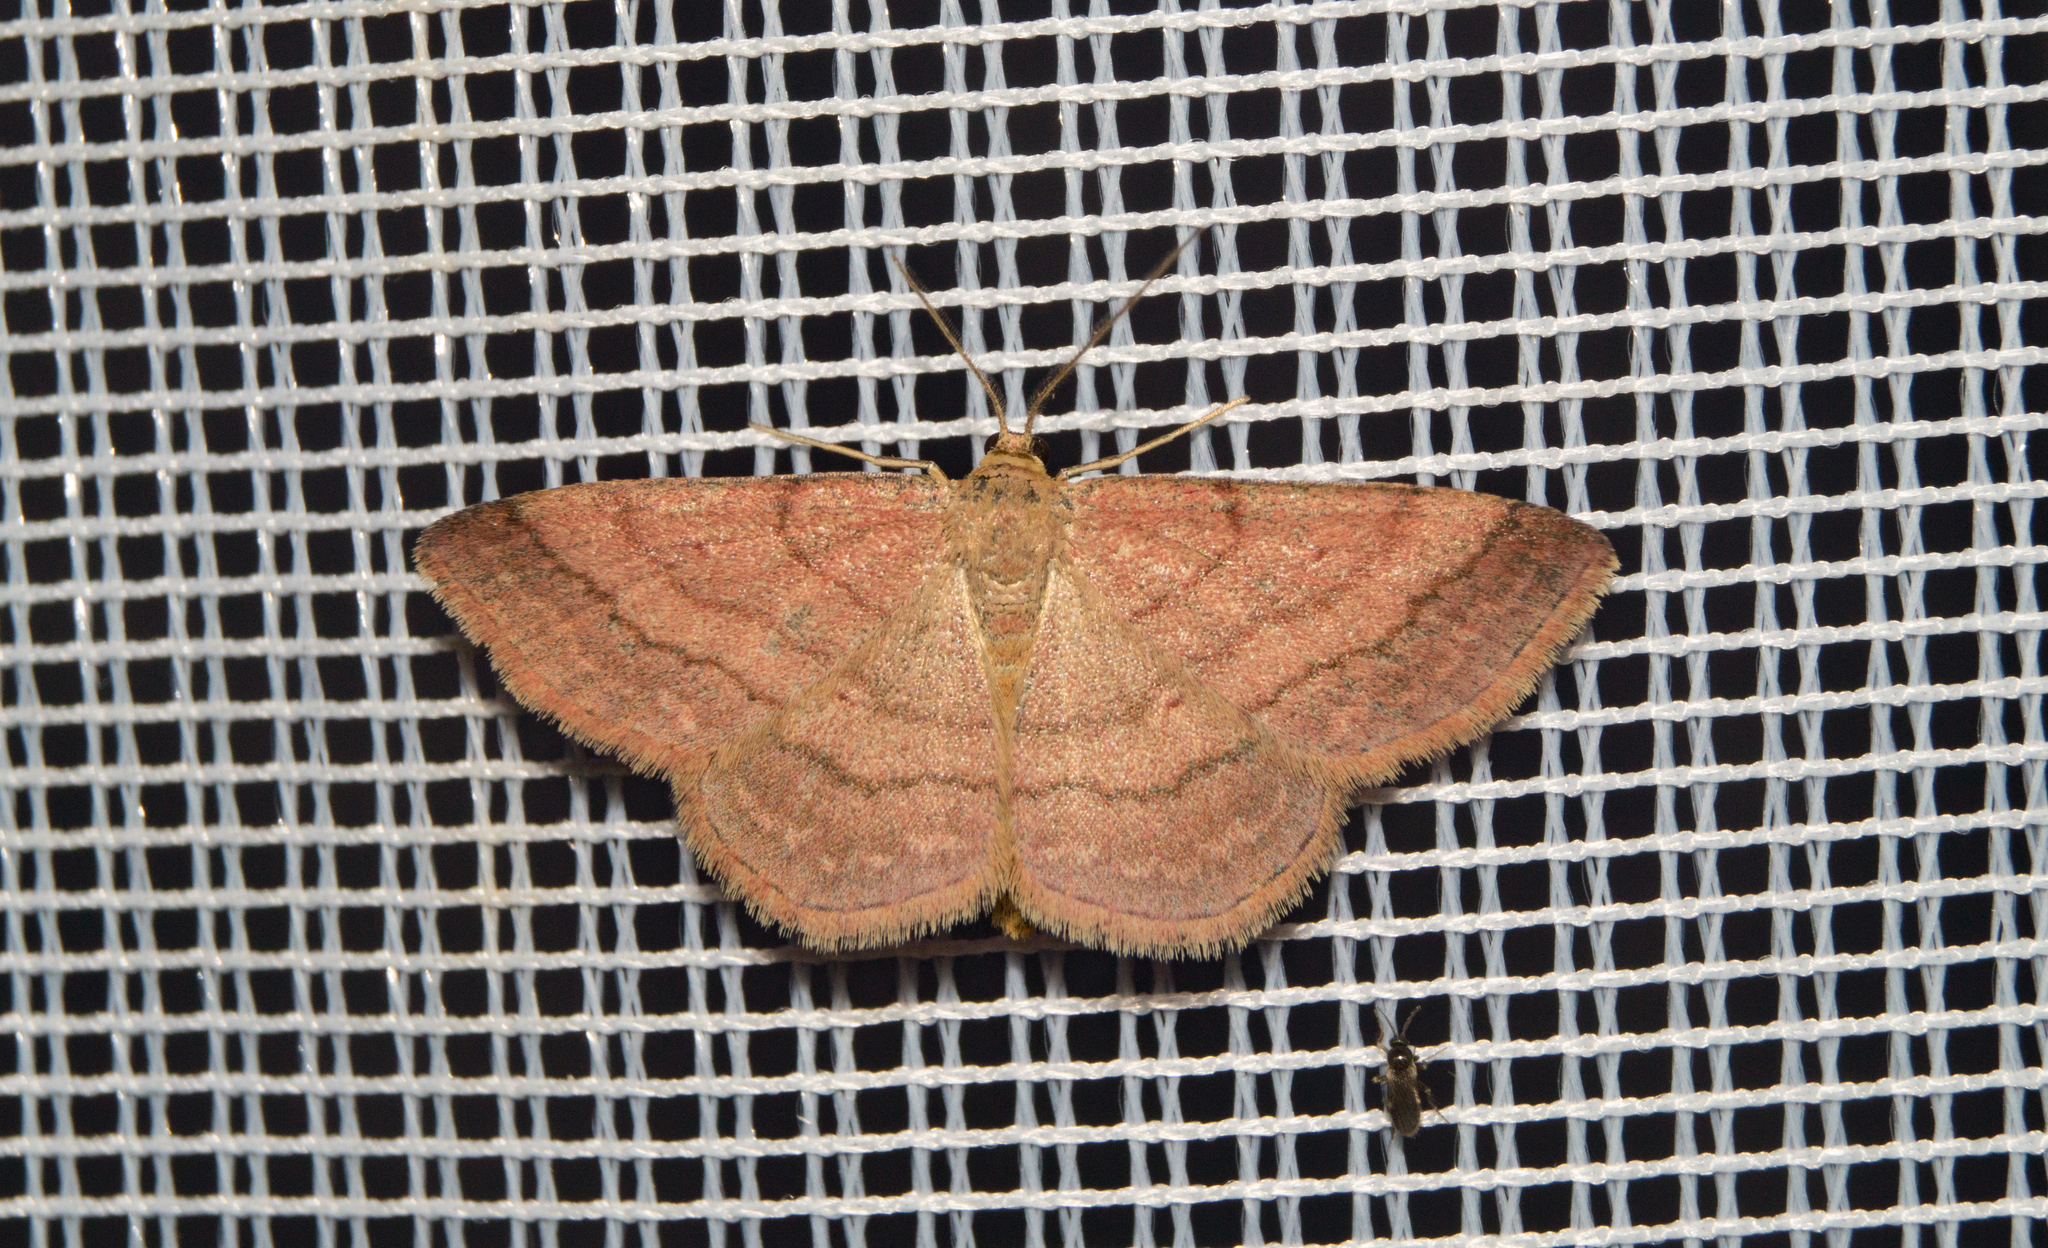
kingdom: Animalia
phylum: Arthropoda
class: Insecta
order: Lepidoptera
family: Geometridae
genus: Scopula
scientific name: Scopula rubiginata
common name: Tawny wave
